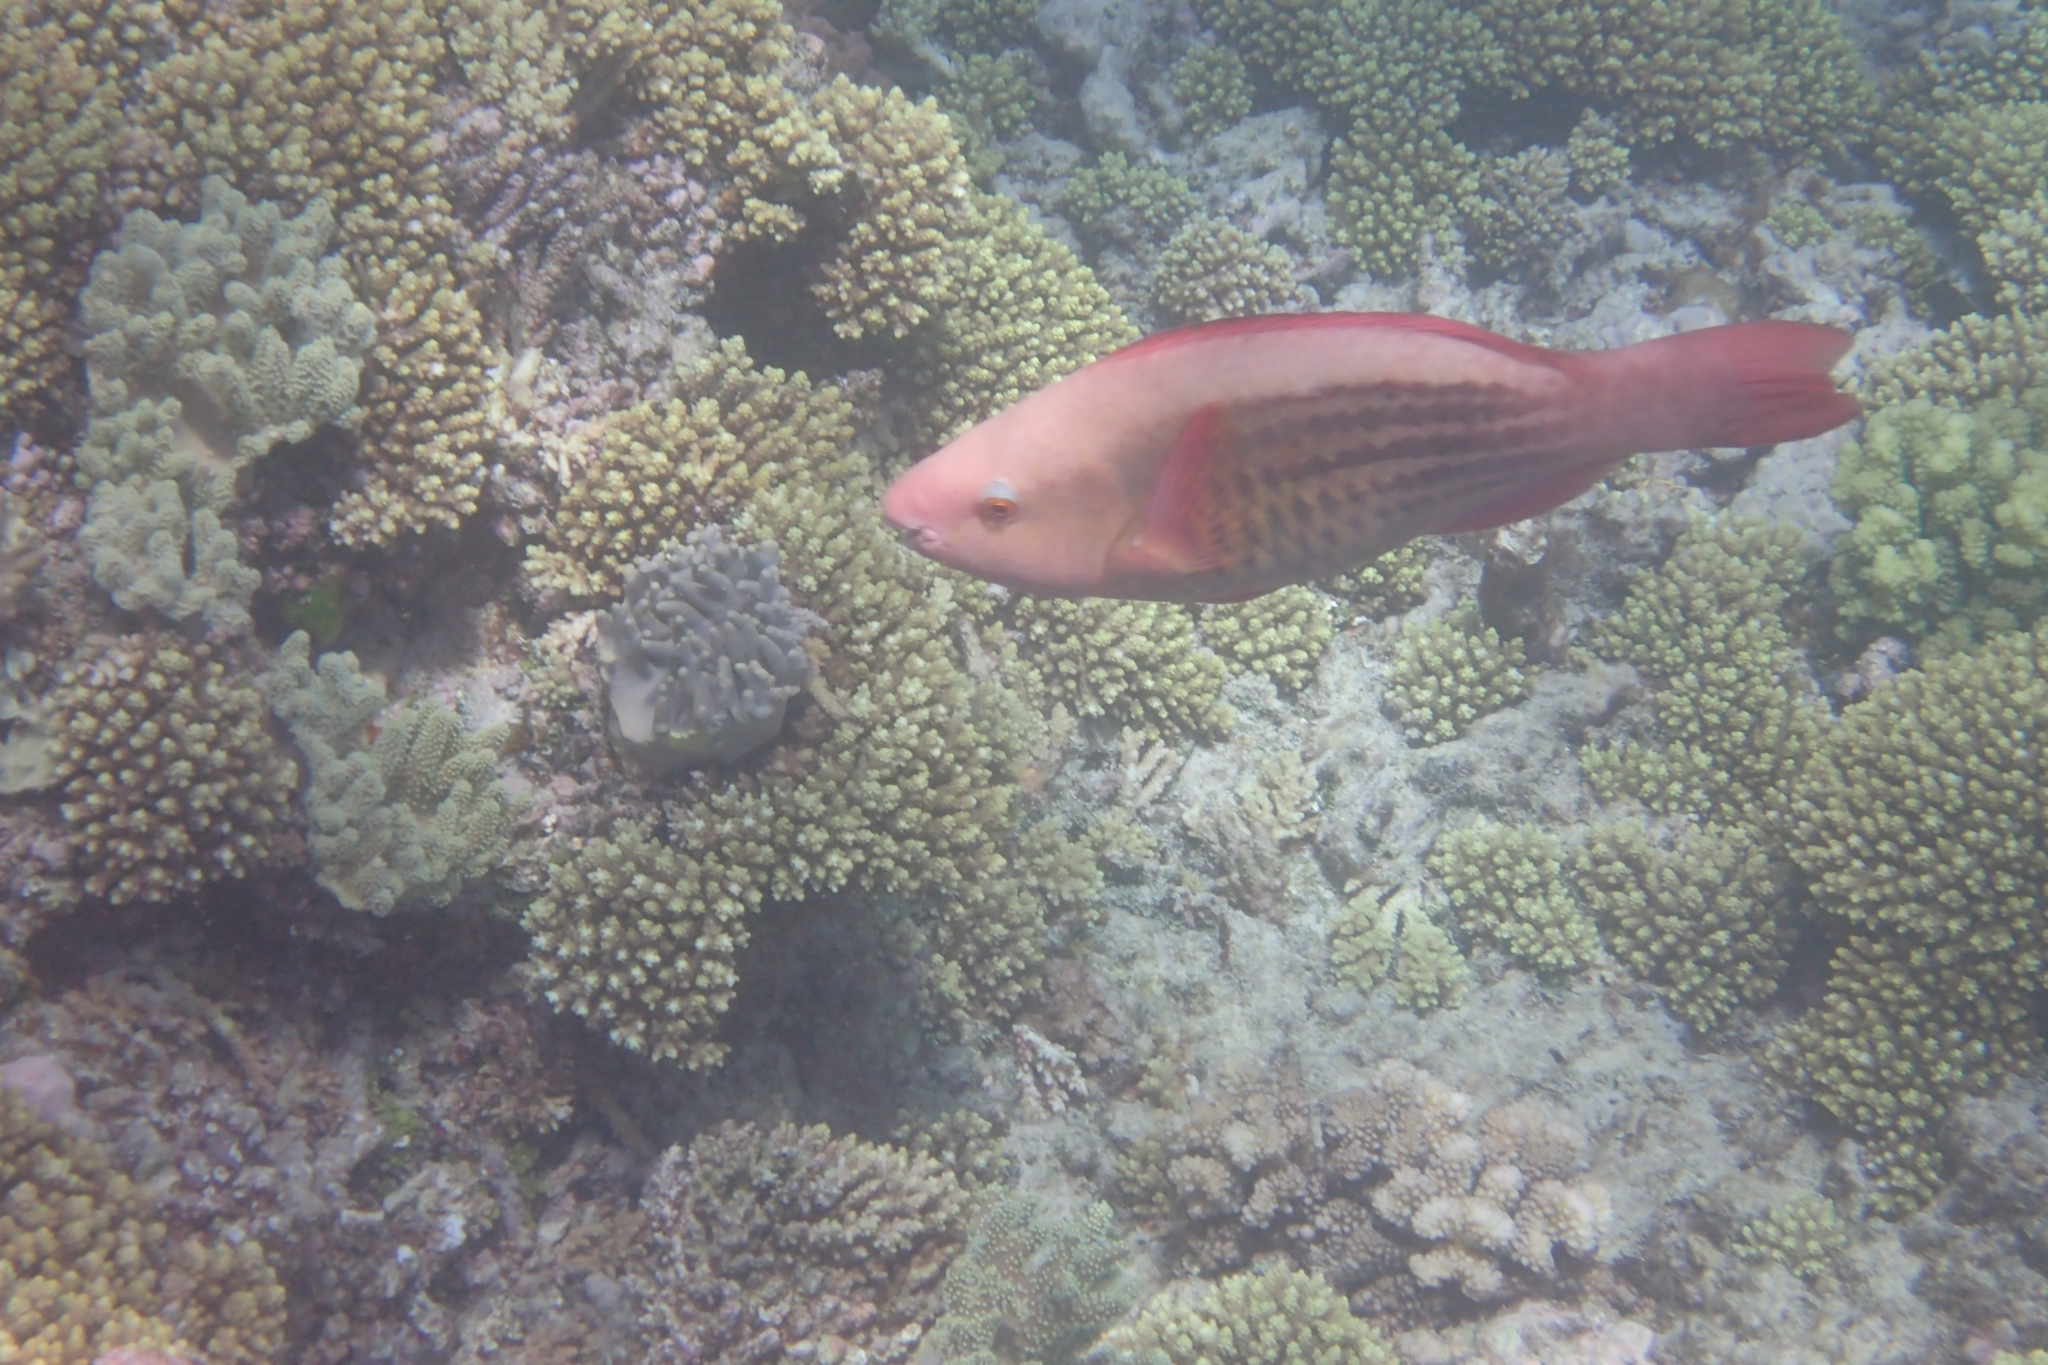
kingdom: Animalia
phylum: Chordata
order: Perciformes
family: Scaridae
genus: Scarus
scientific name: Scarus frenatus
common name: Bridled parrotfish
